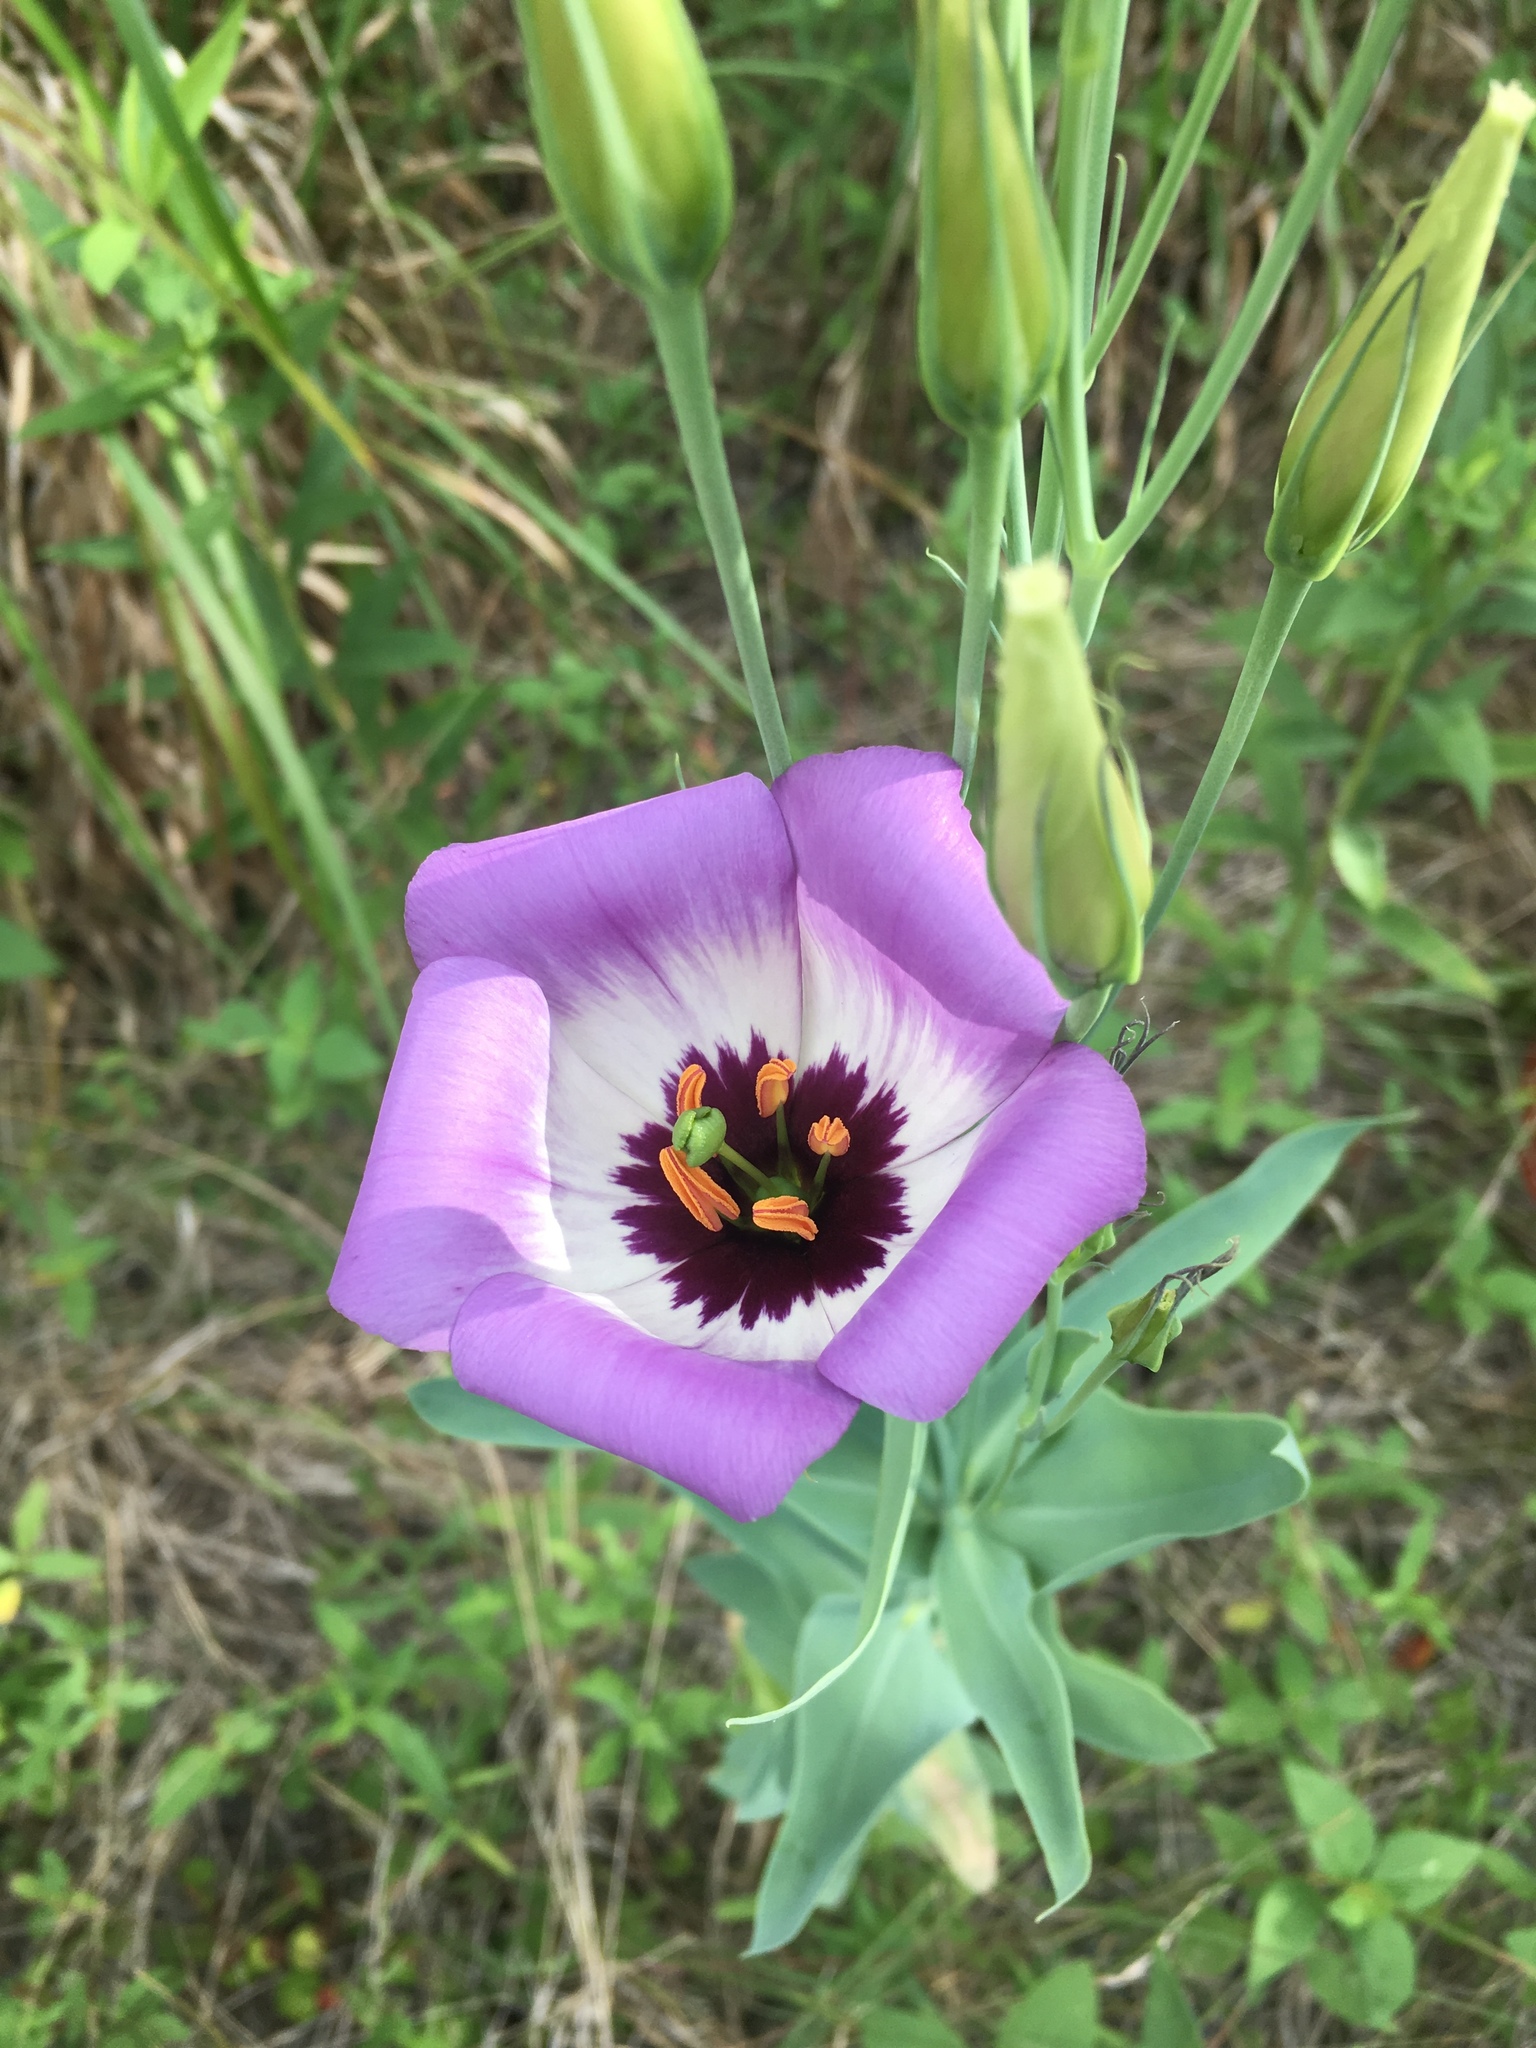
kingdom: Plantae
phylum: Tracheophyta
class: Magnoliopsida
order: Gentianales
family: Gentianaceae
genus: Eustoma
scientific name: Eustoma russellianum
